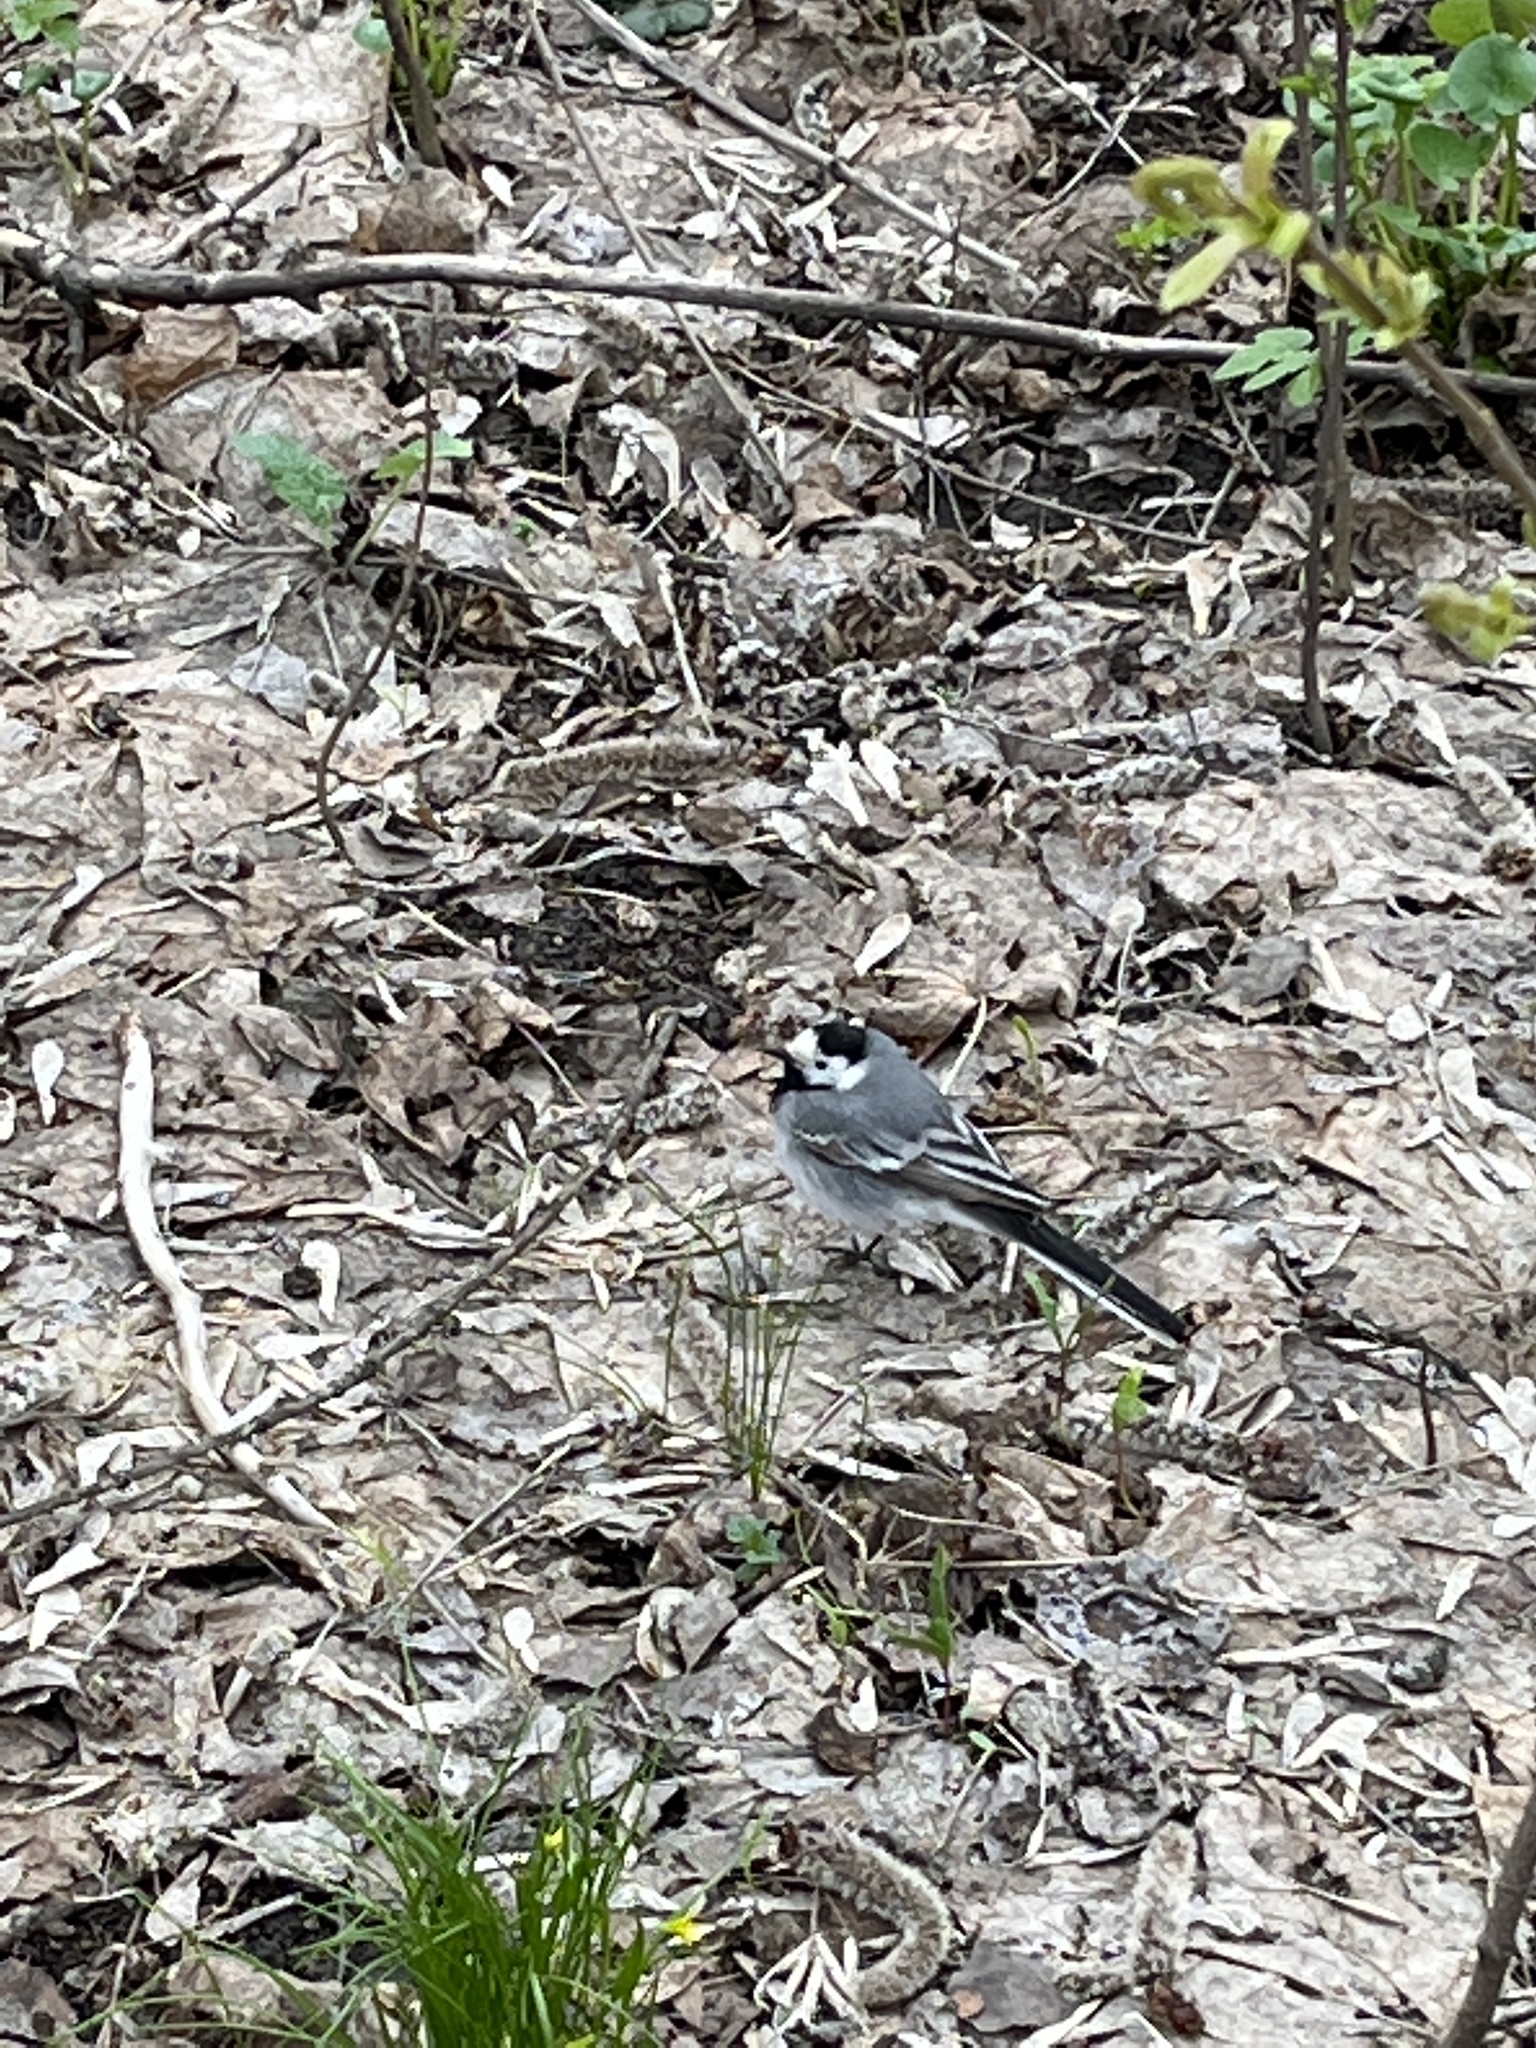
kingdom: Animalia
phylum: Chordata
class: Aves
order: Passeriformes
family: Motacillidae
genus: Motacilla
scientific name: Motacilla alba
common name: White wagtail
